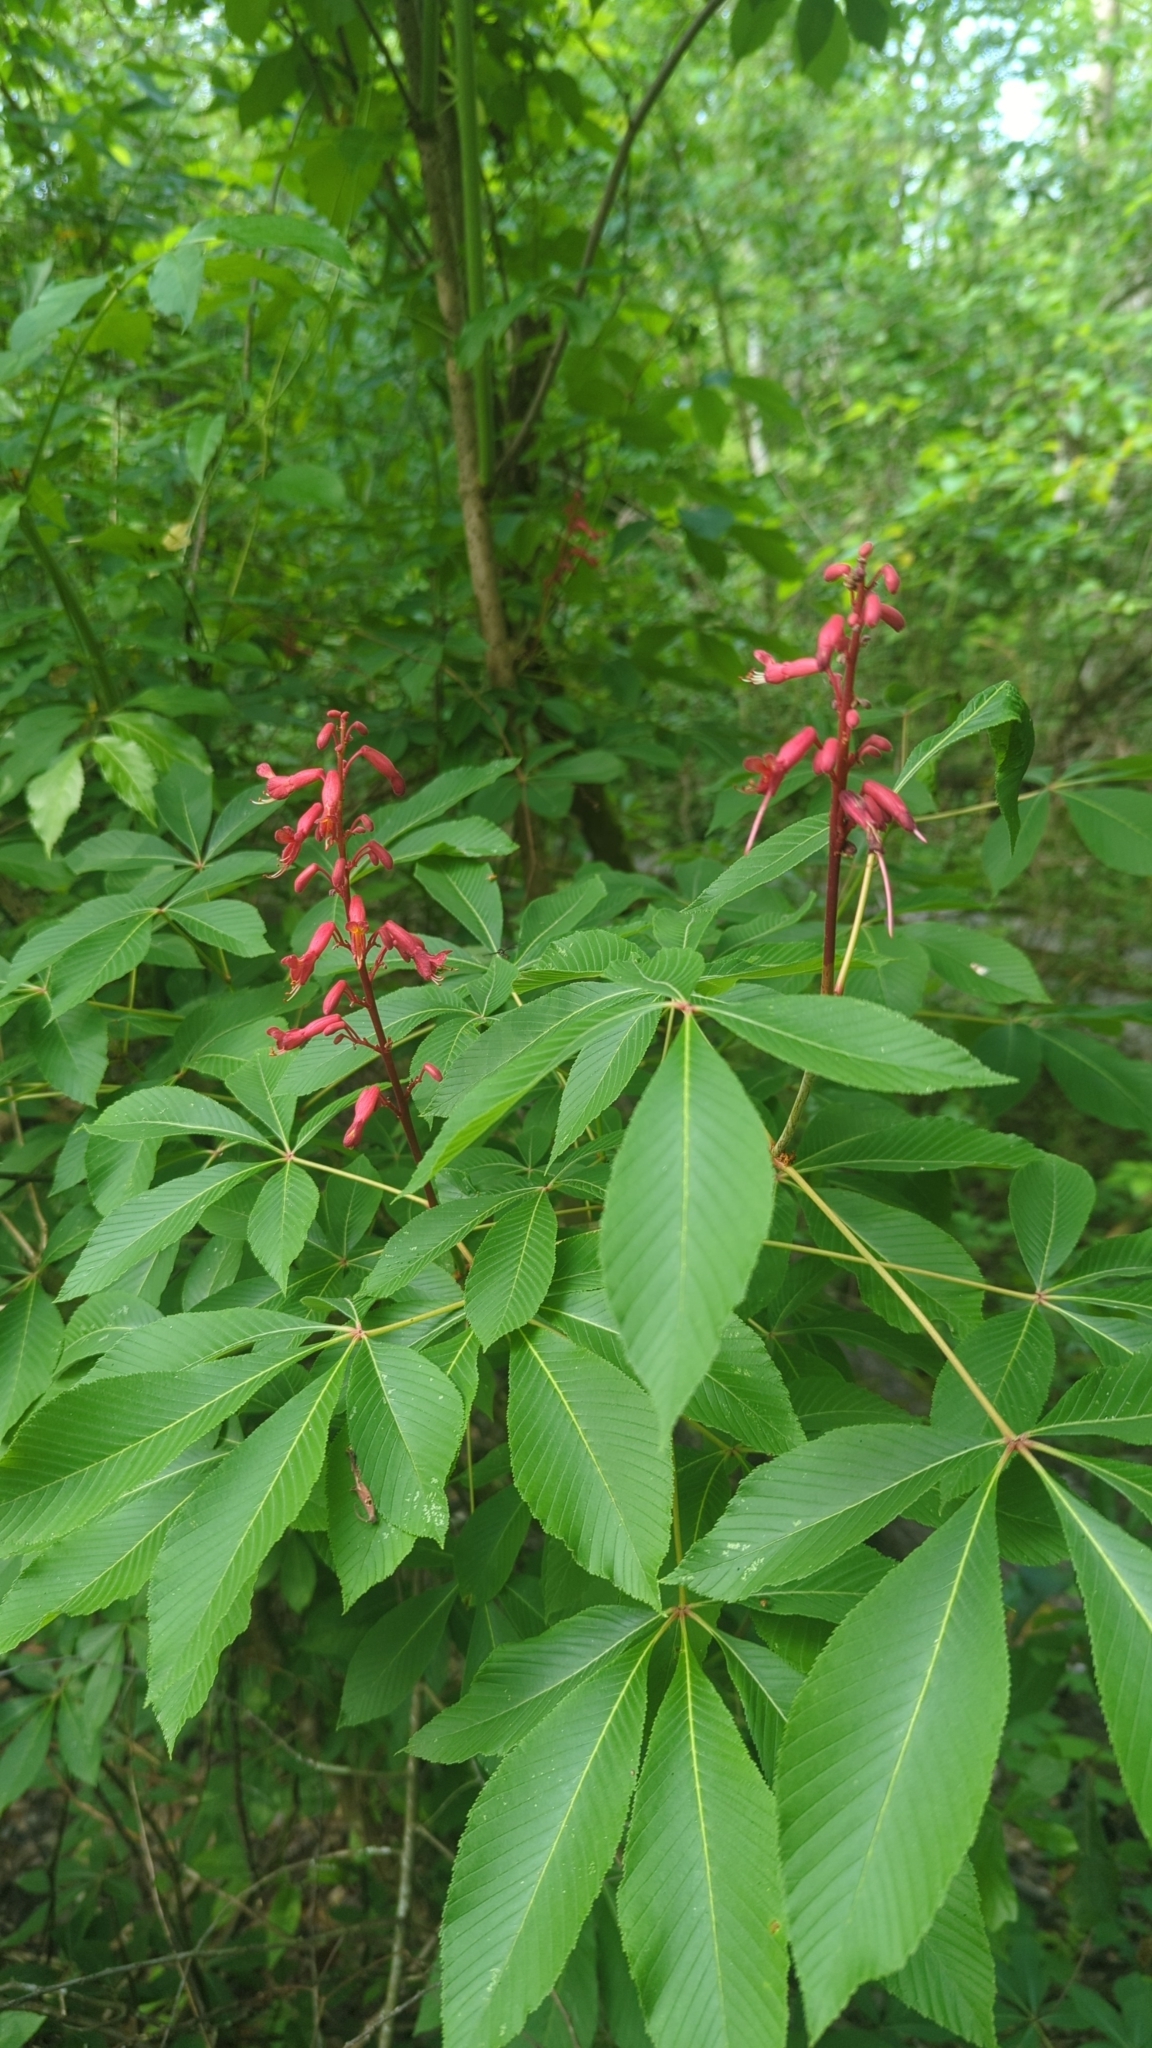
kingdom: Plantae
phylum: Tracheophyta
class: Magnoliopsida
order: Sapindales
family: Sapindaceae
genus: Aesculus
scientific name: Aesculus pavia
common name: Red buckeye
